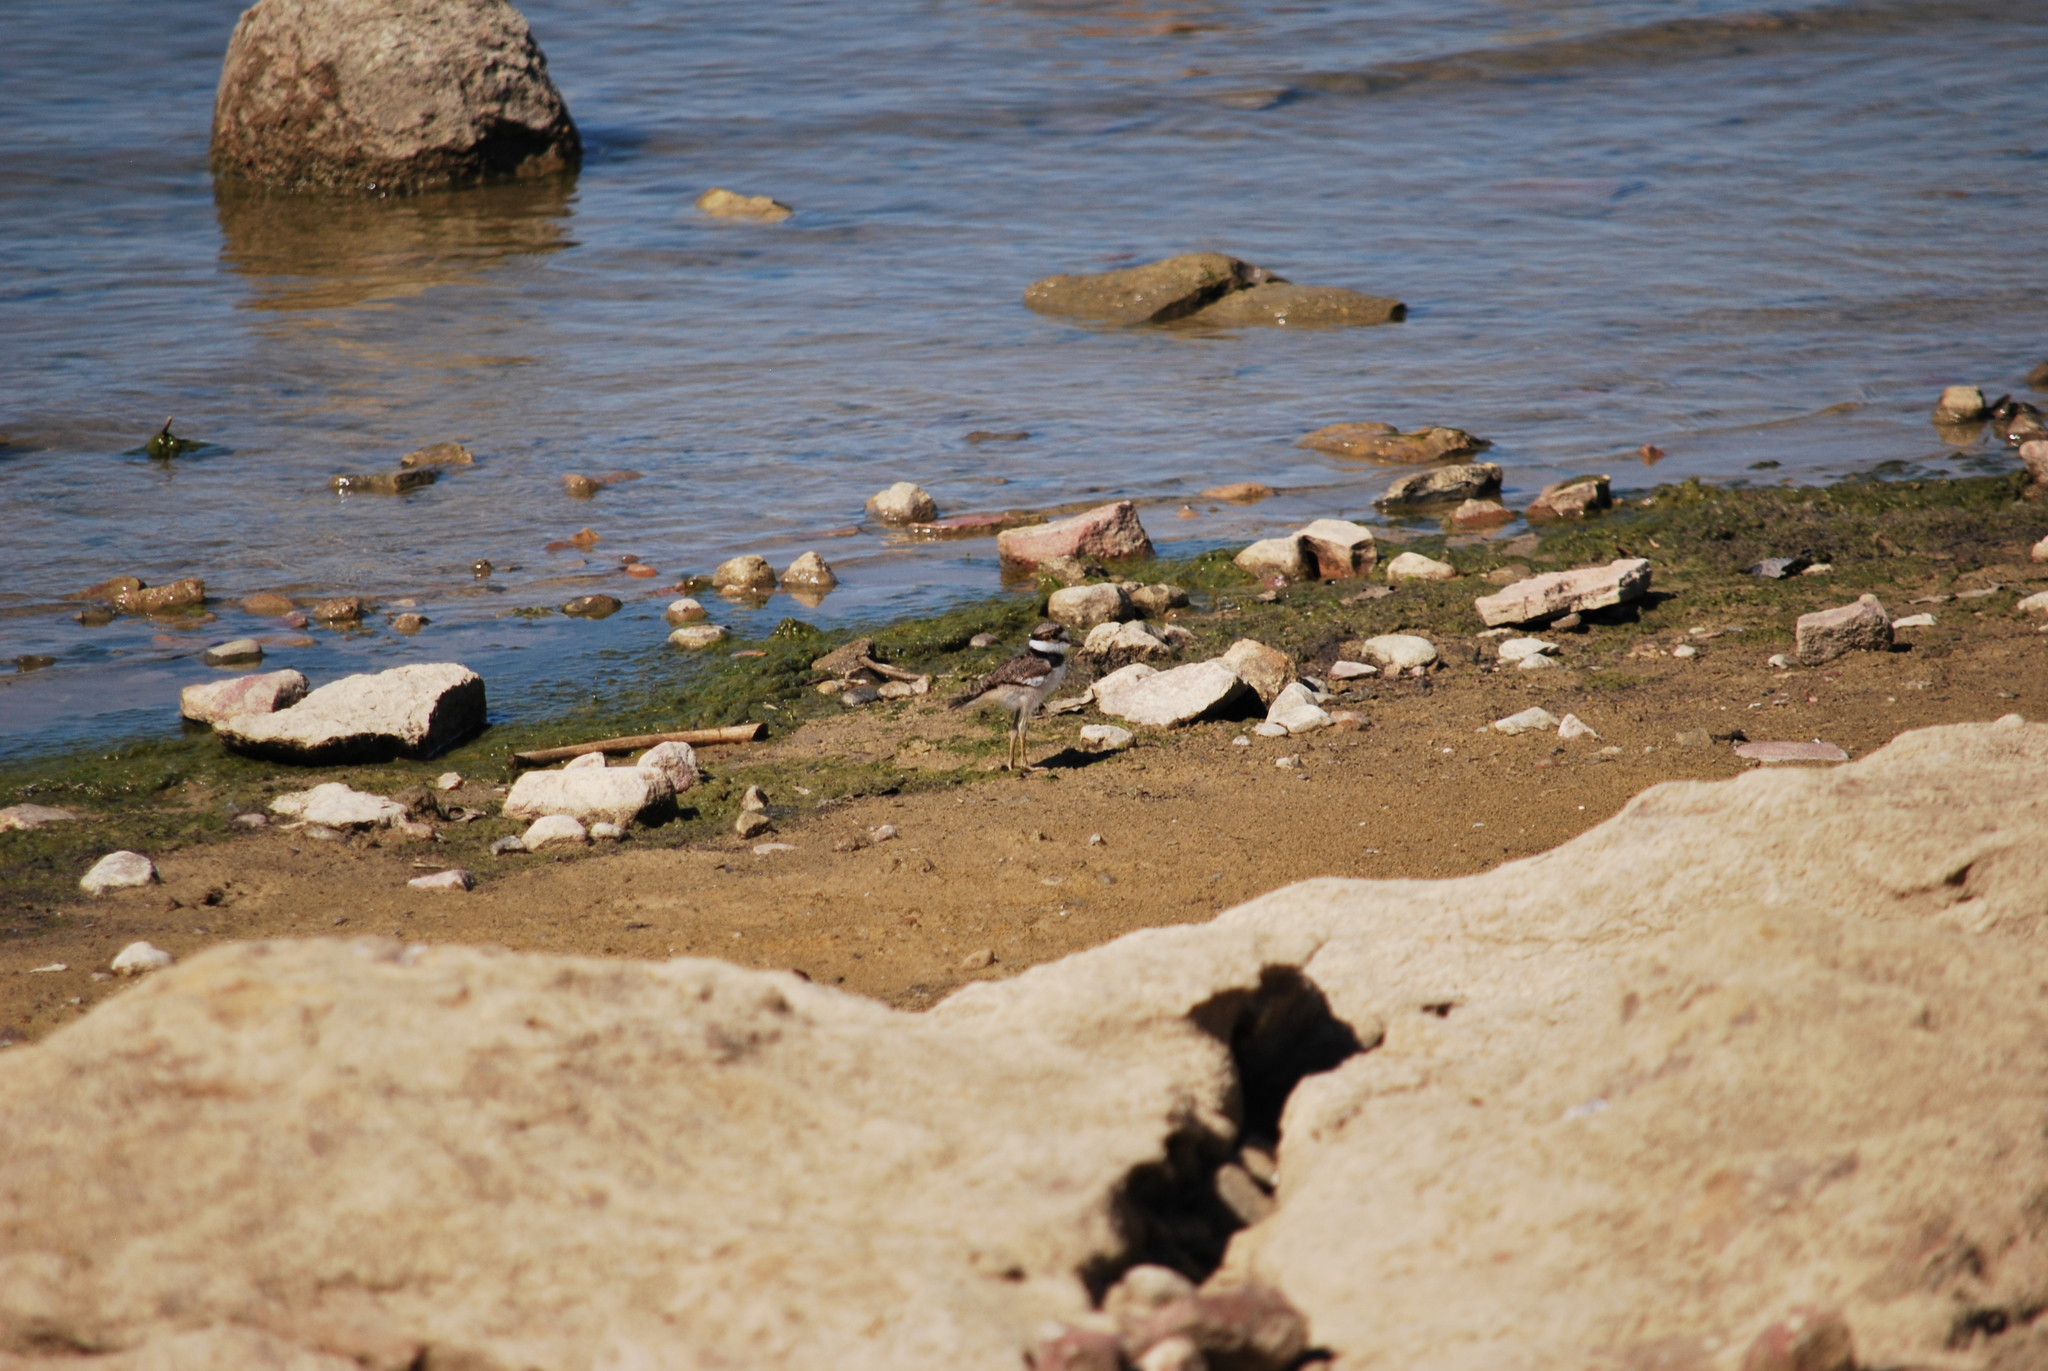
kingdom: Animalia
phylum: Chordata
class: Aves
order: Charadriiformes
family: Charadriidae
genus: Charadrius
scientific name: Charadrius vociferus
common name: Killdeer
